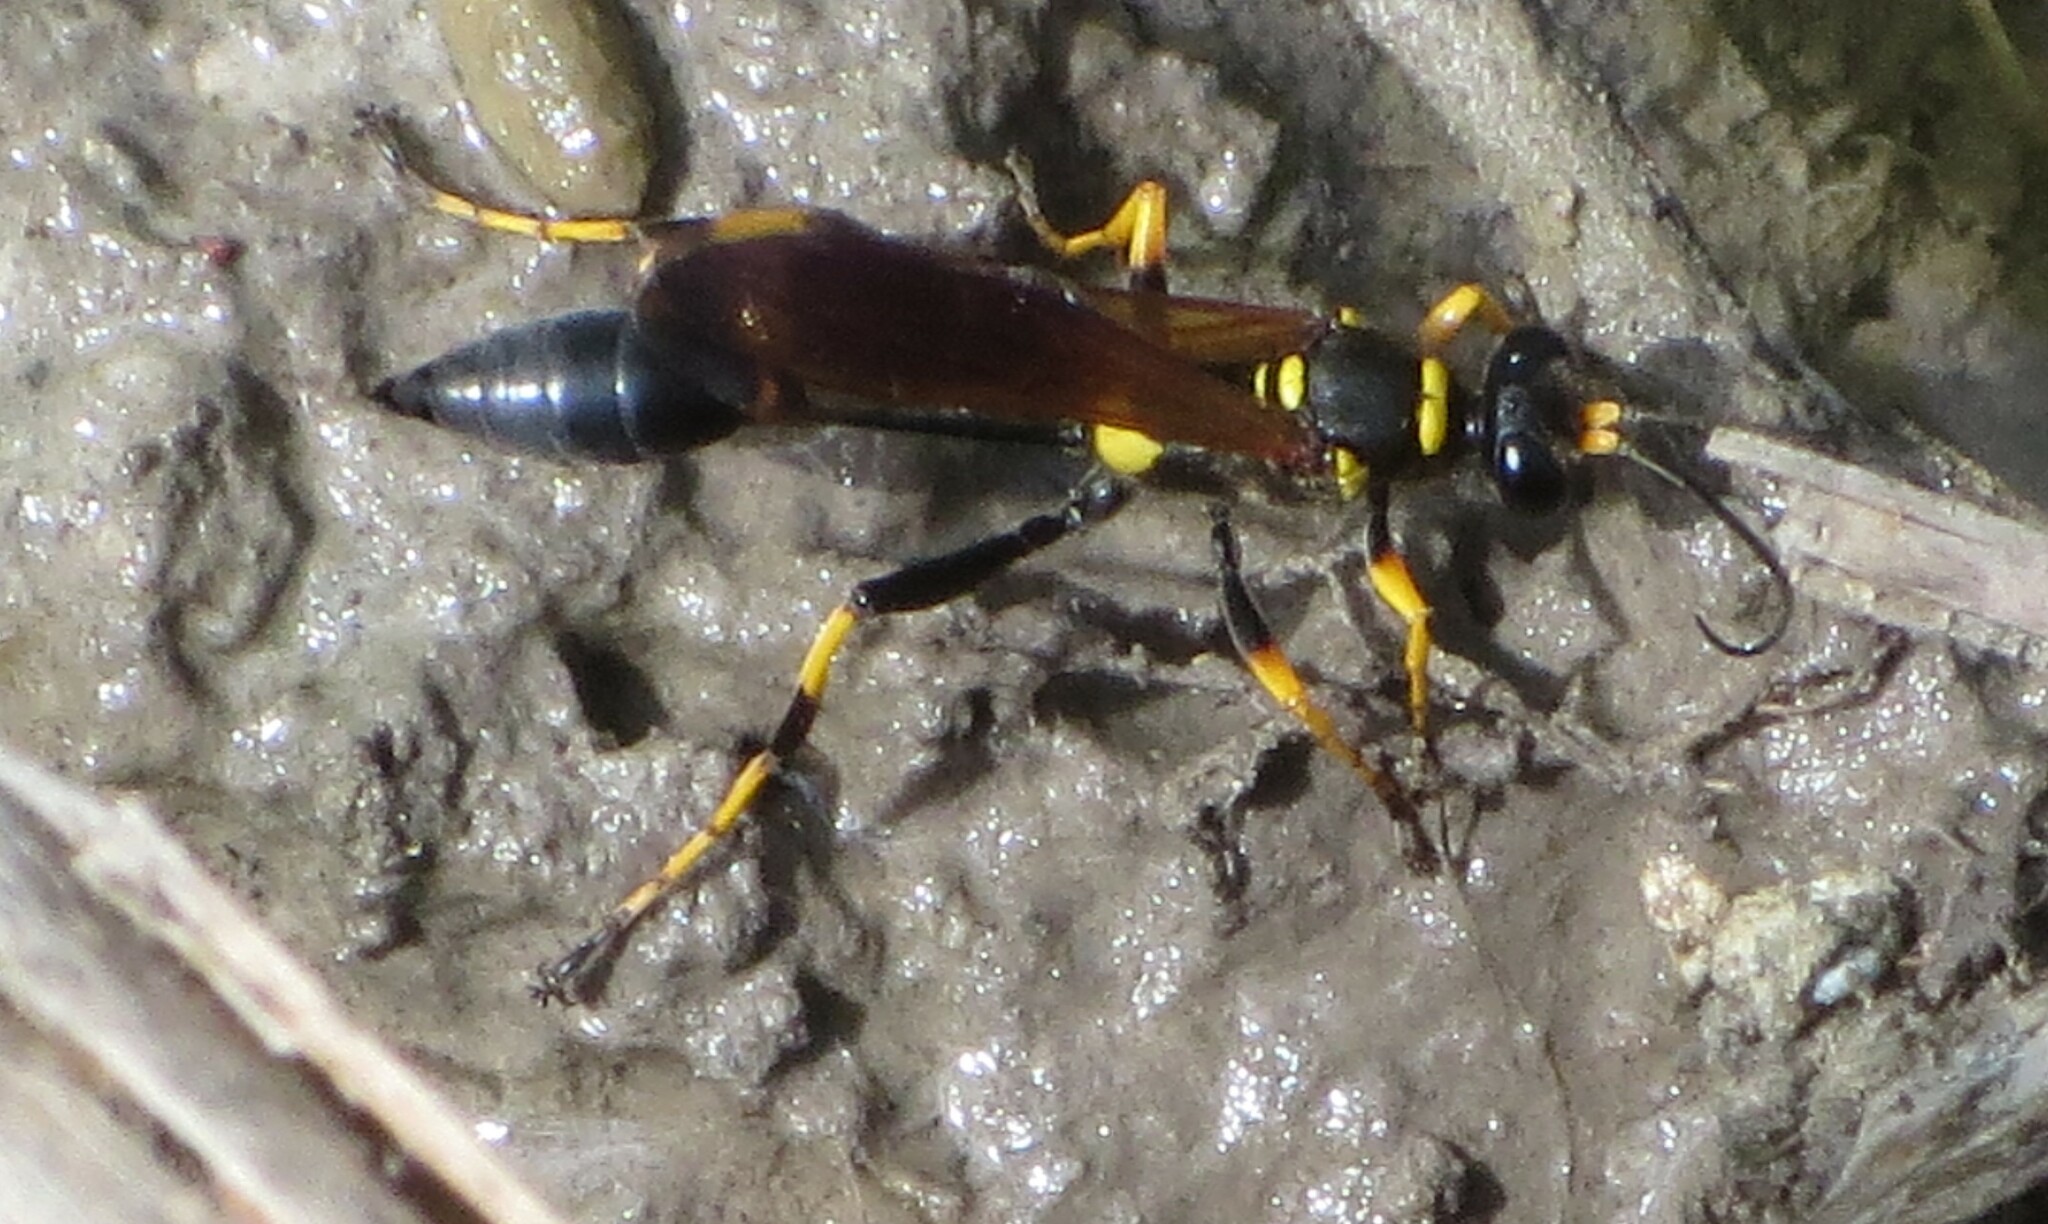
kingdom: Animalia
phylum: Arthropoda
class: Insecta
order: Hymenoptera
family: Sphecidae
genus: Sceliphron
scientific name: Sceliphron caementarium
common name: Mud dauber
